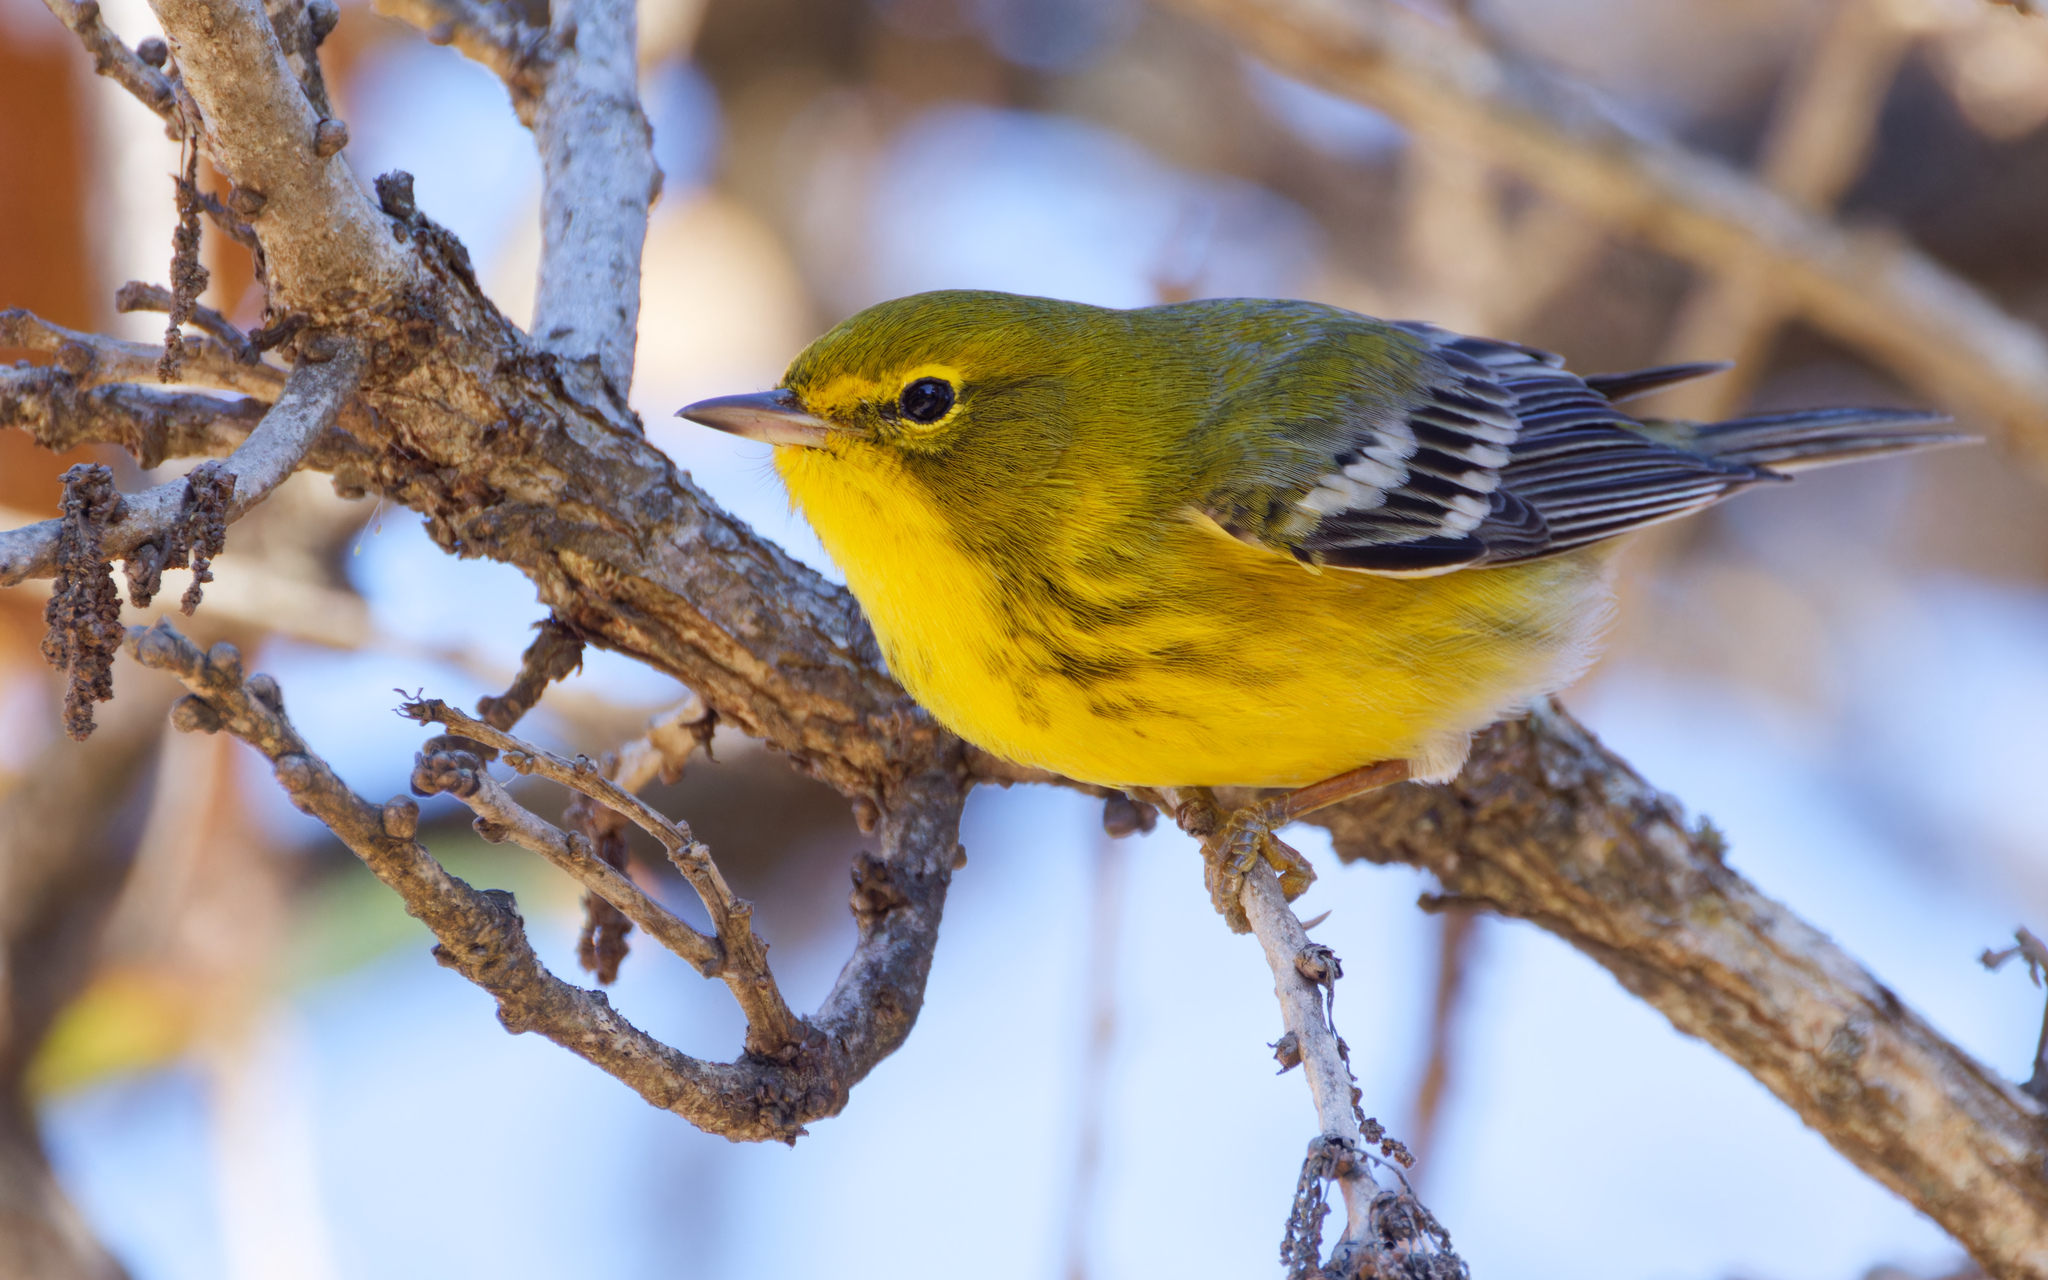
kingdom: Animalia
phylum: Chordata
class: Aves
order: Passeriformes
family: Parulidae
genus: Setophaga
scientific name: Setophaga pinus
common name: Pine warbler
